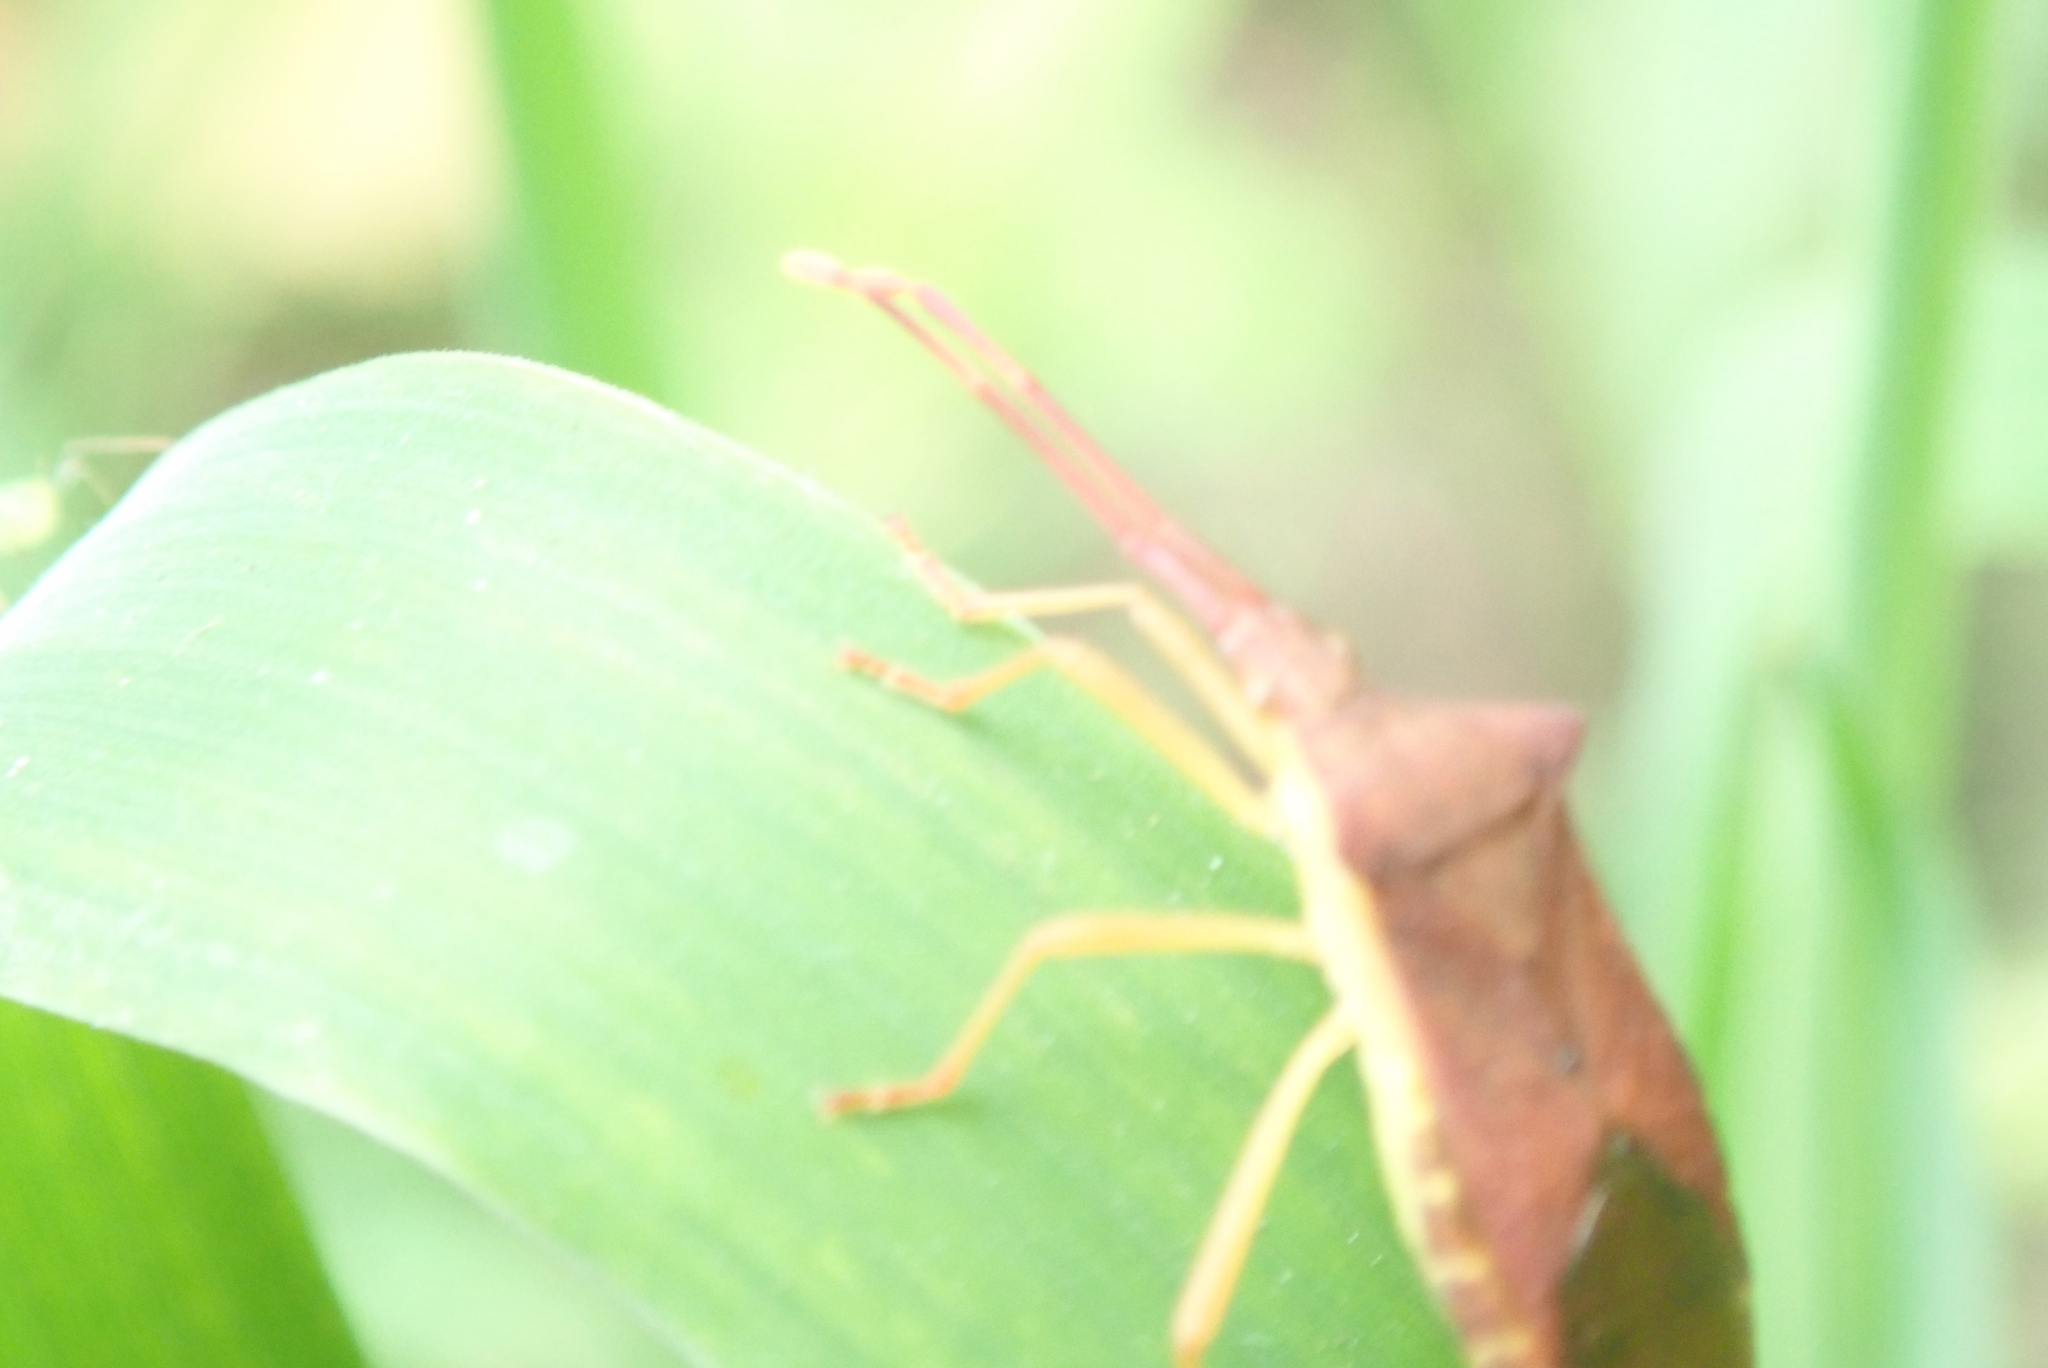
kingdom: Animalia
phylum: Arthropoda
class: Insecta
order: Hemiptera
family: Coreidae
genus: Gonocerus
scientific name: Gonocerus acuteangulatus
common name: Box bug
